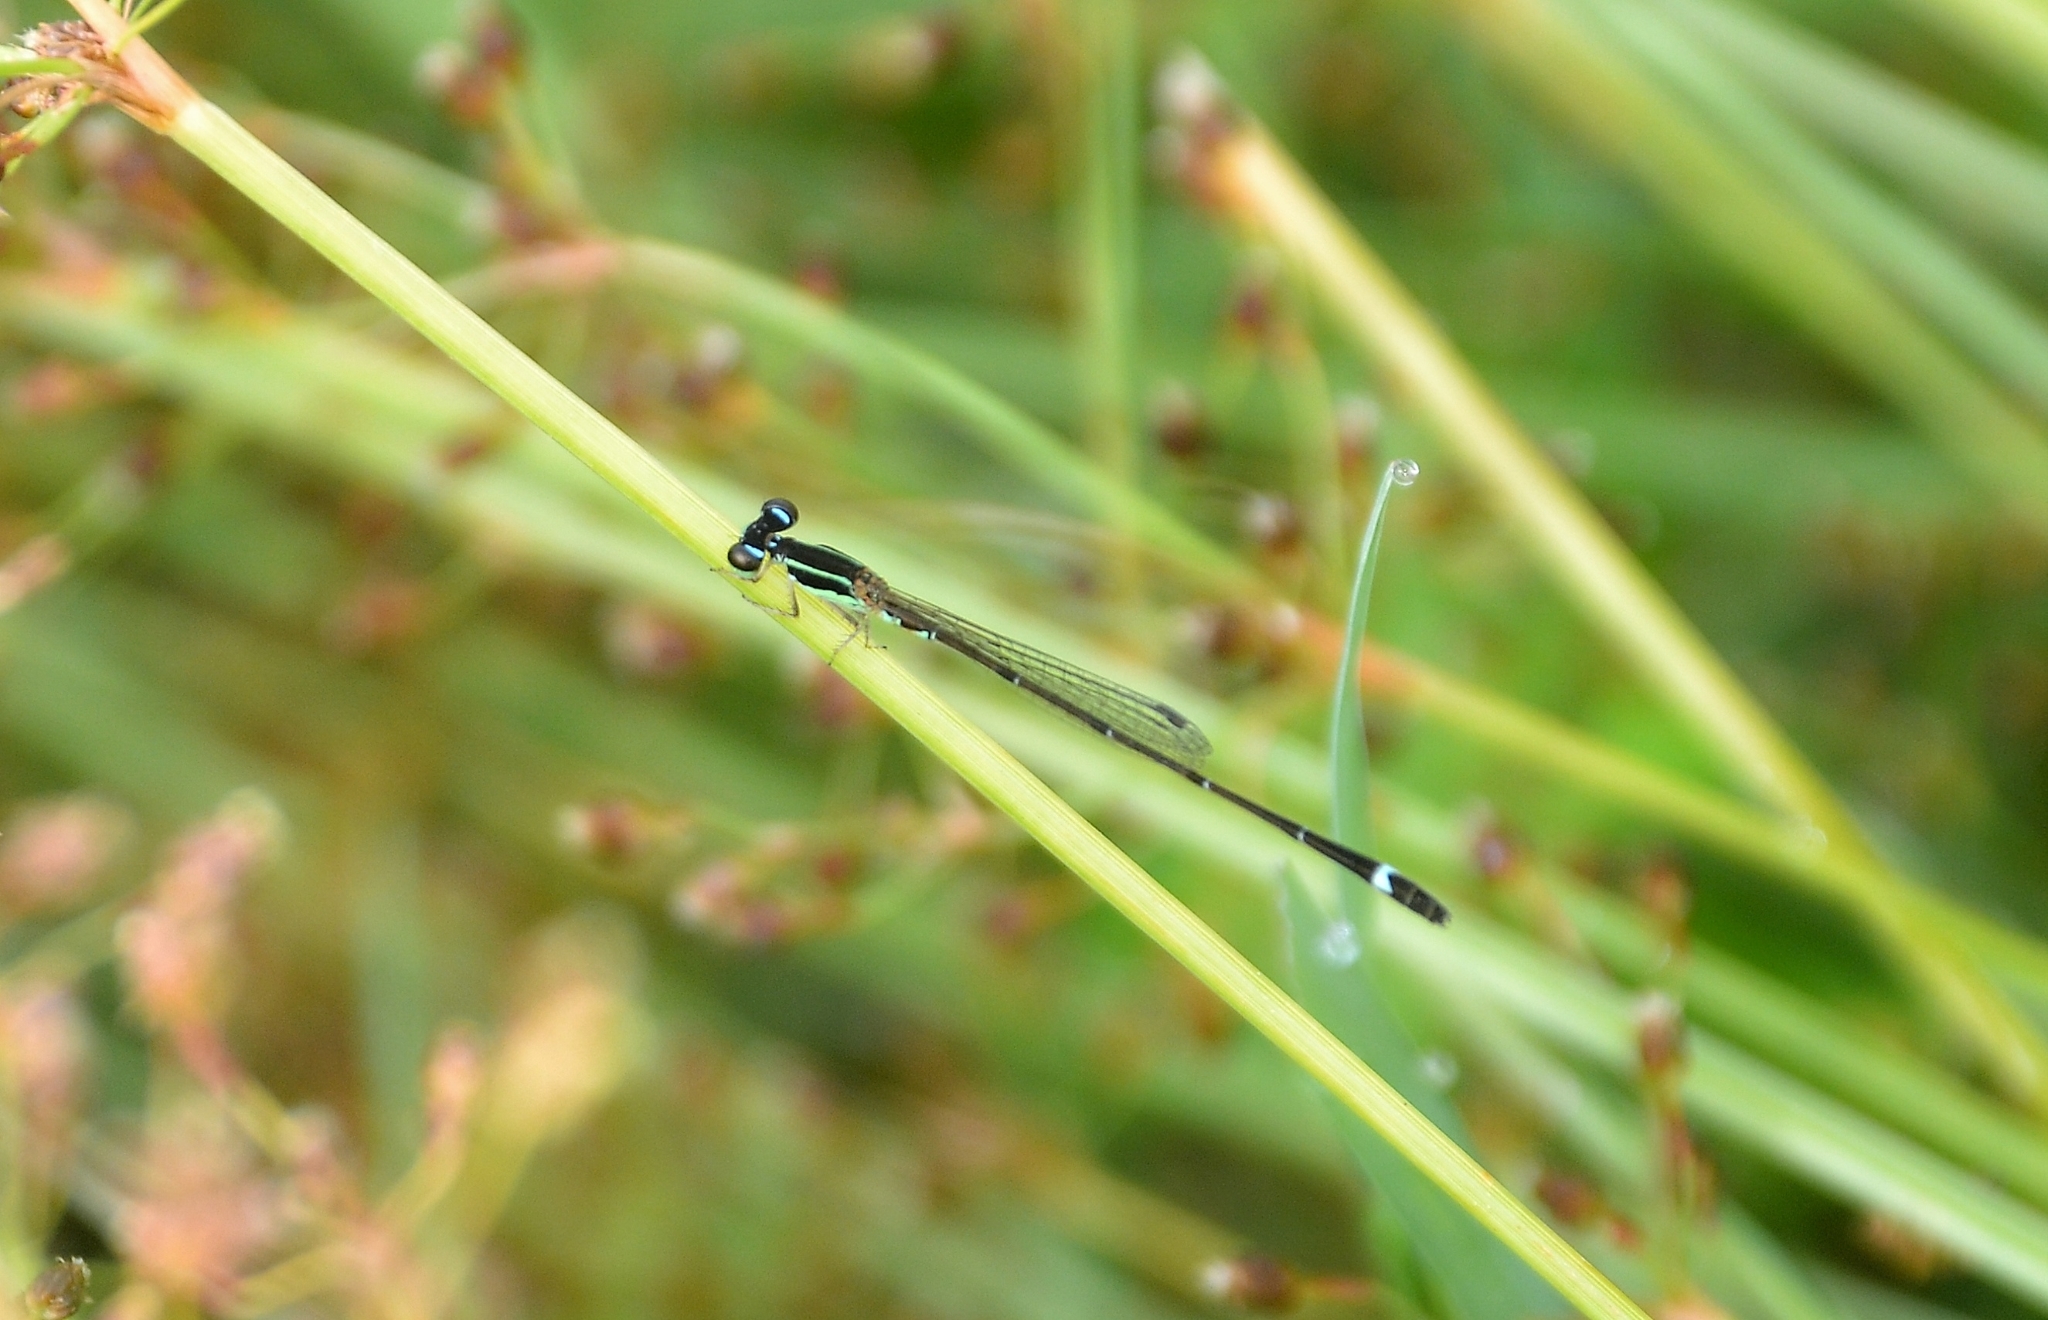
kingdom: Animalia
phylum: Arthropoda
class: Insecta
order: Odonata
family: Coenagrionidae
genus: Mortonagrion
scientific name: Mortonagrion varralli
